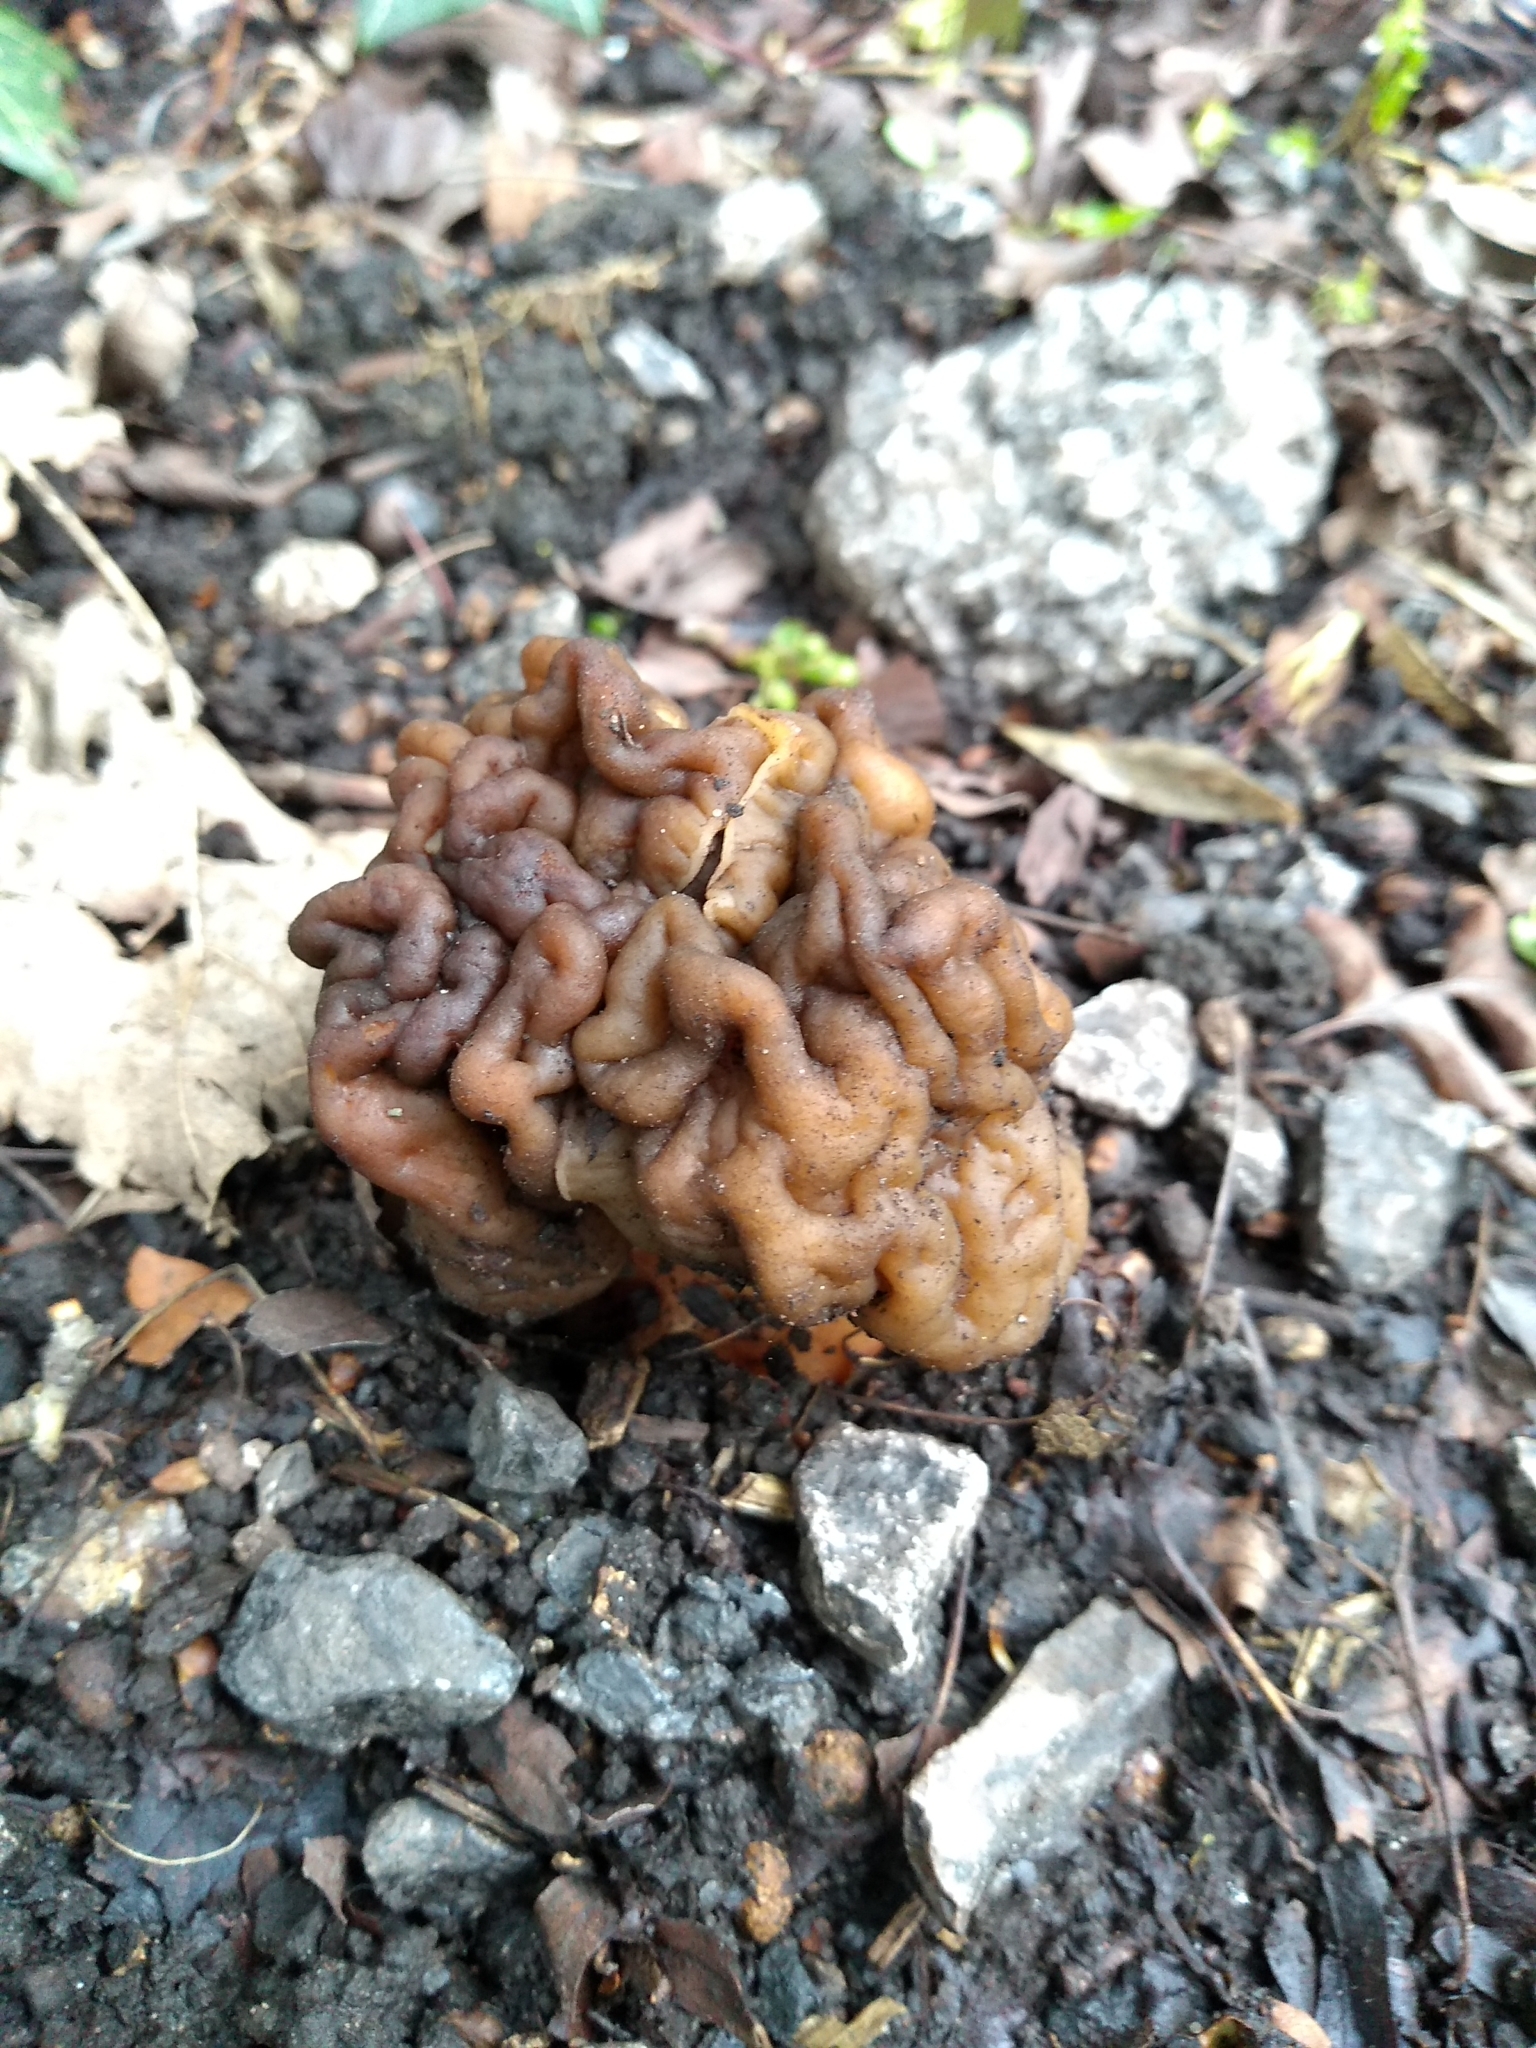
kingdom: Fungi
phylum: Ascomycota
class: Pezizomycetes
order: Pezizales
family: Discinaceae
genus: Gyromitra
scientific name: Gyromitra esculenta
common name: False morel
